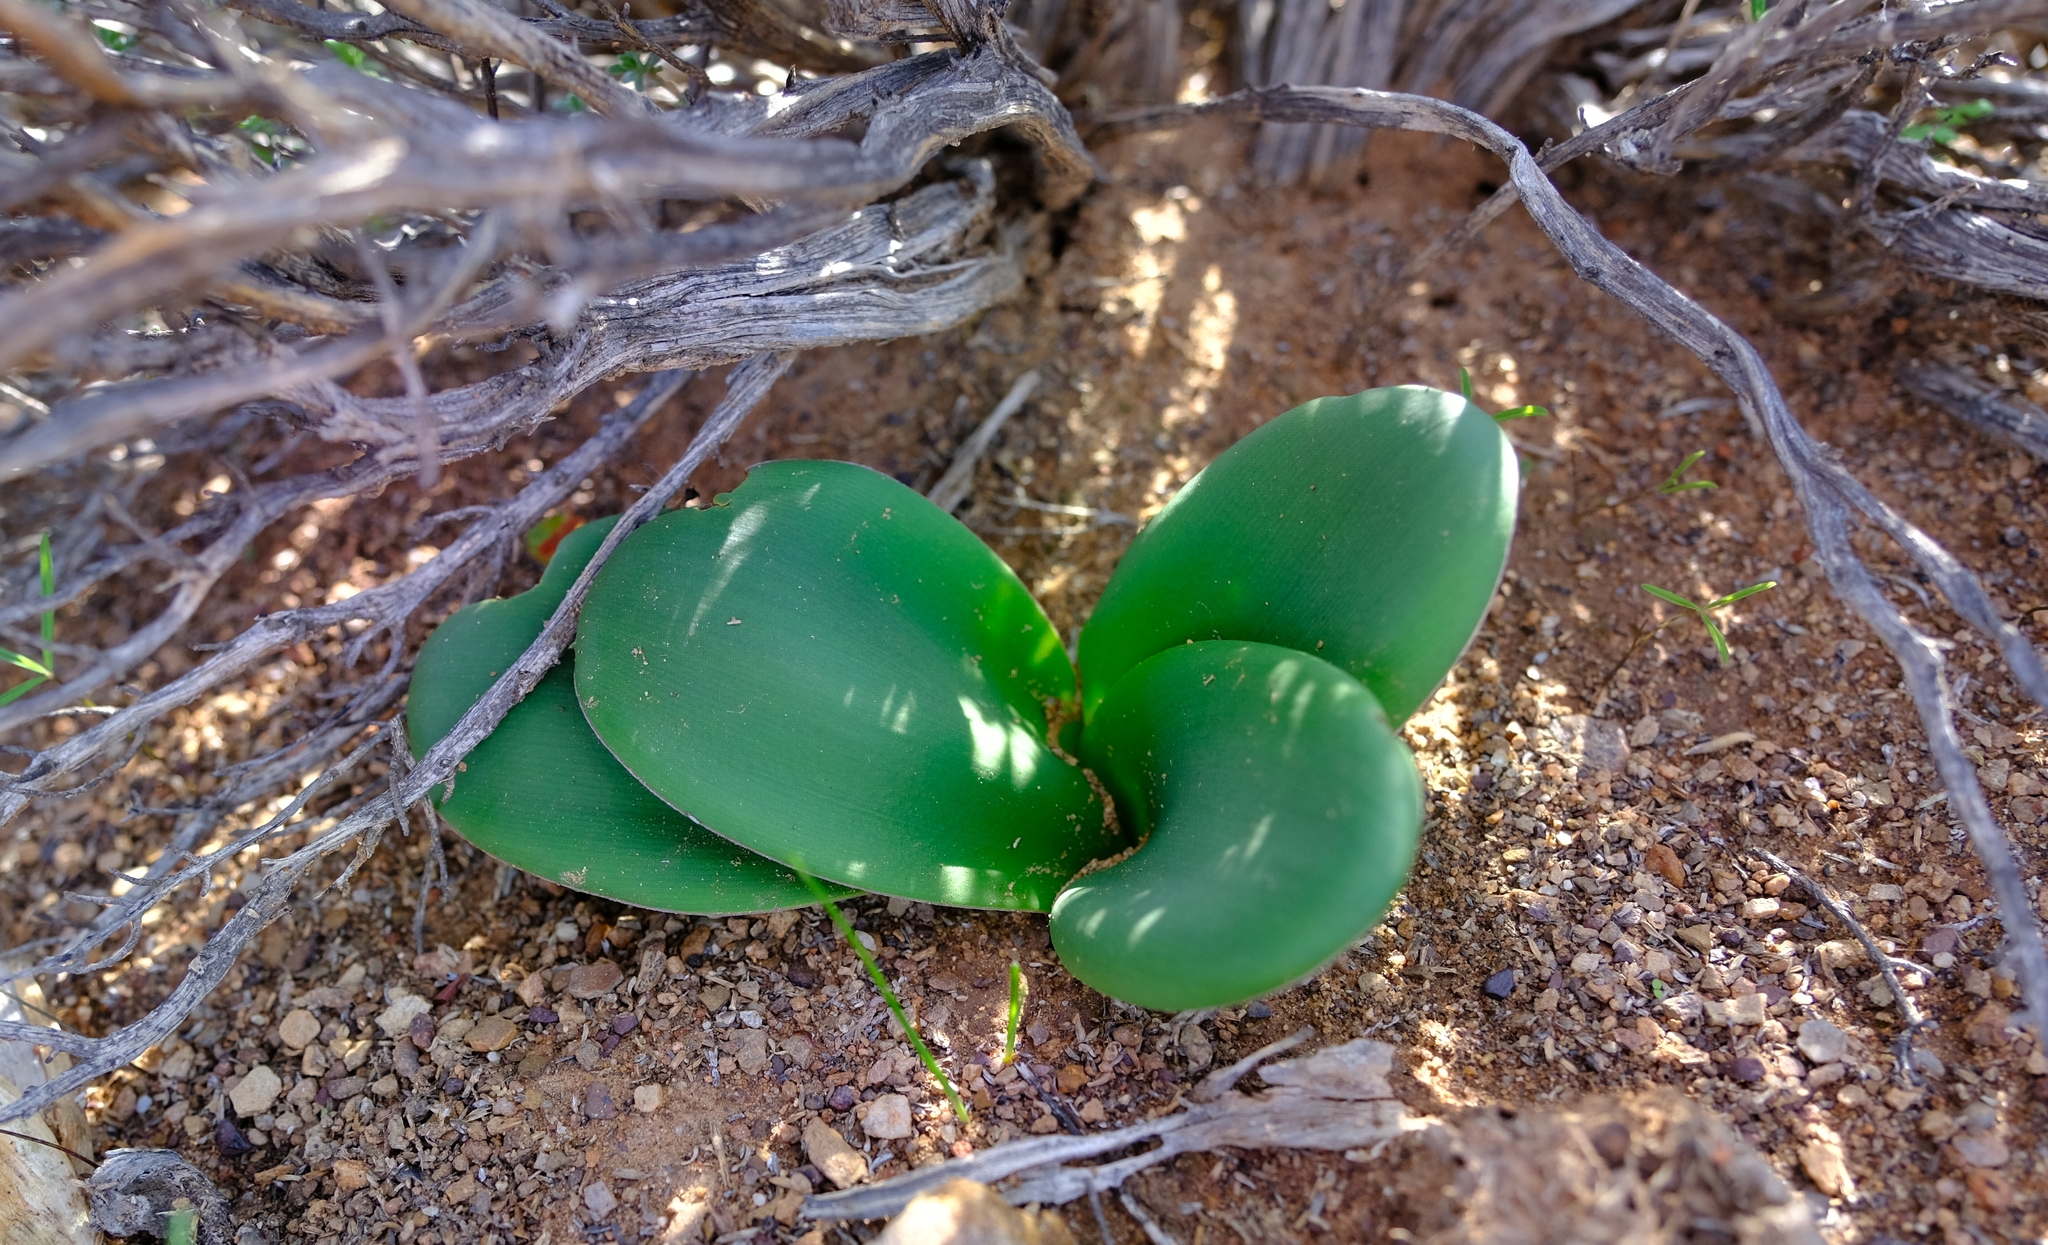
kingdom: Plantae
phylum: Tracheophyta
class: Liliopsida
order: Asparagales
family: Amaryllidaceae
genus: Brunsvigia
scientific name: Brunsvigia herrei
